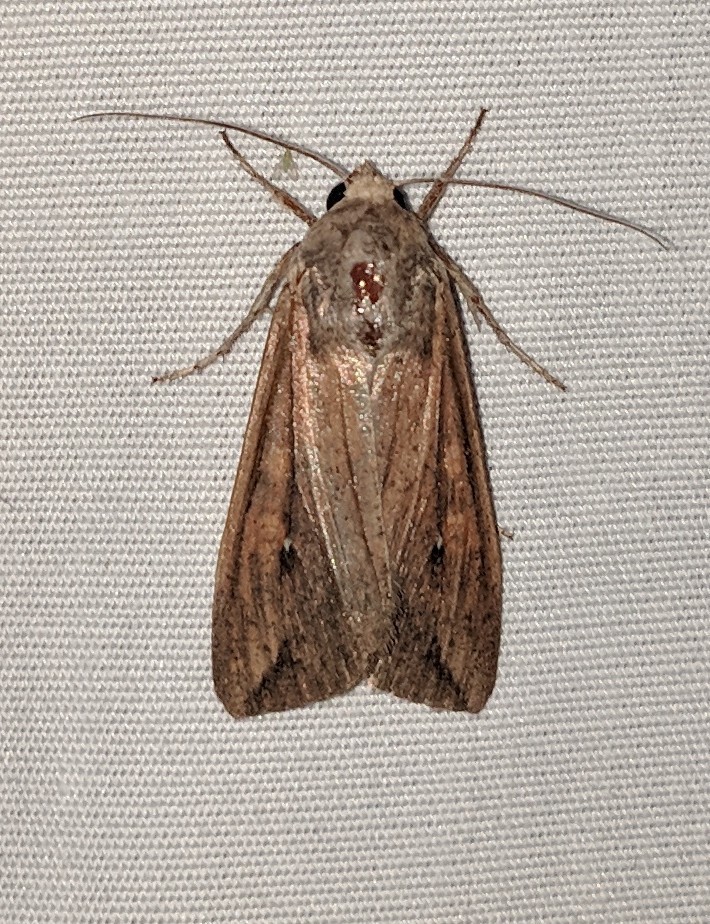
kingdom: Animalia
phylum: Arthropoda
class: Insecta
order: Lepidoptera
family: Noctuidae
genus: Mythimna
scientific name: Mythimna unipuncta
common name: White-speck
